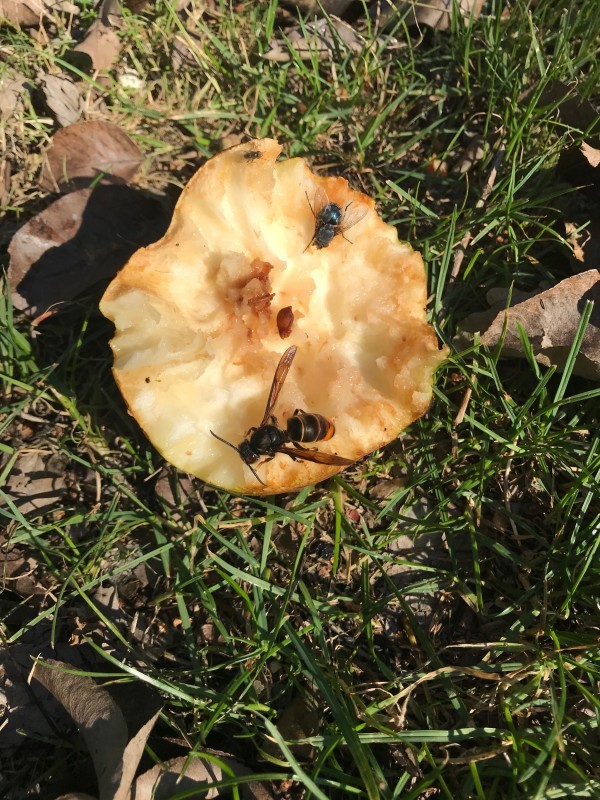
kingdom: Animalia
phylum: Arthropoda
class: Insecta
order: Hymenoptera
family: Vespidae
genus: Vespa
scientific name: Vespa velutina
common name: Asian hornet
